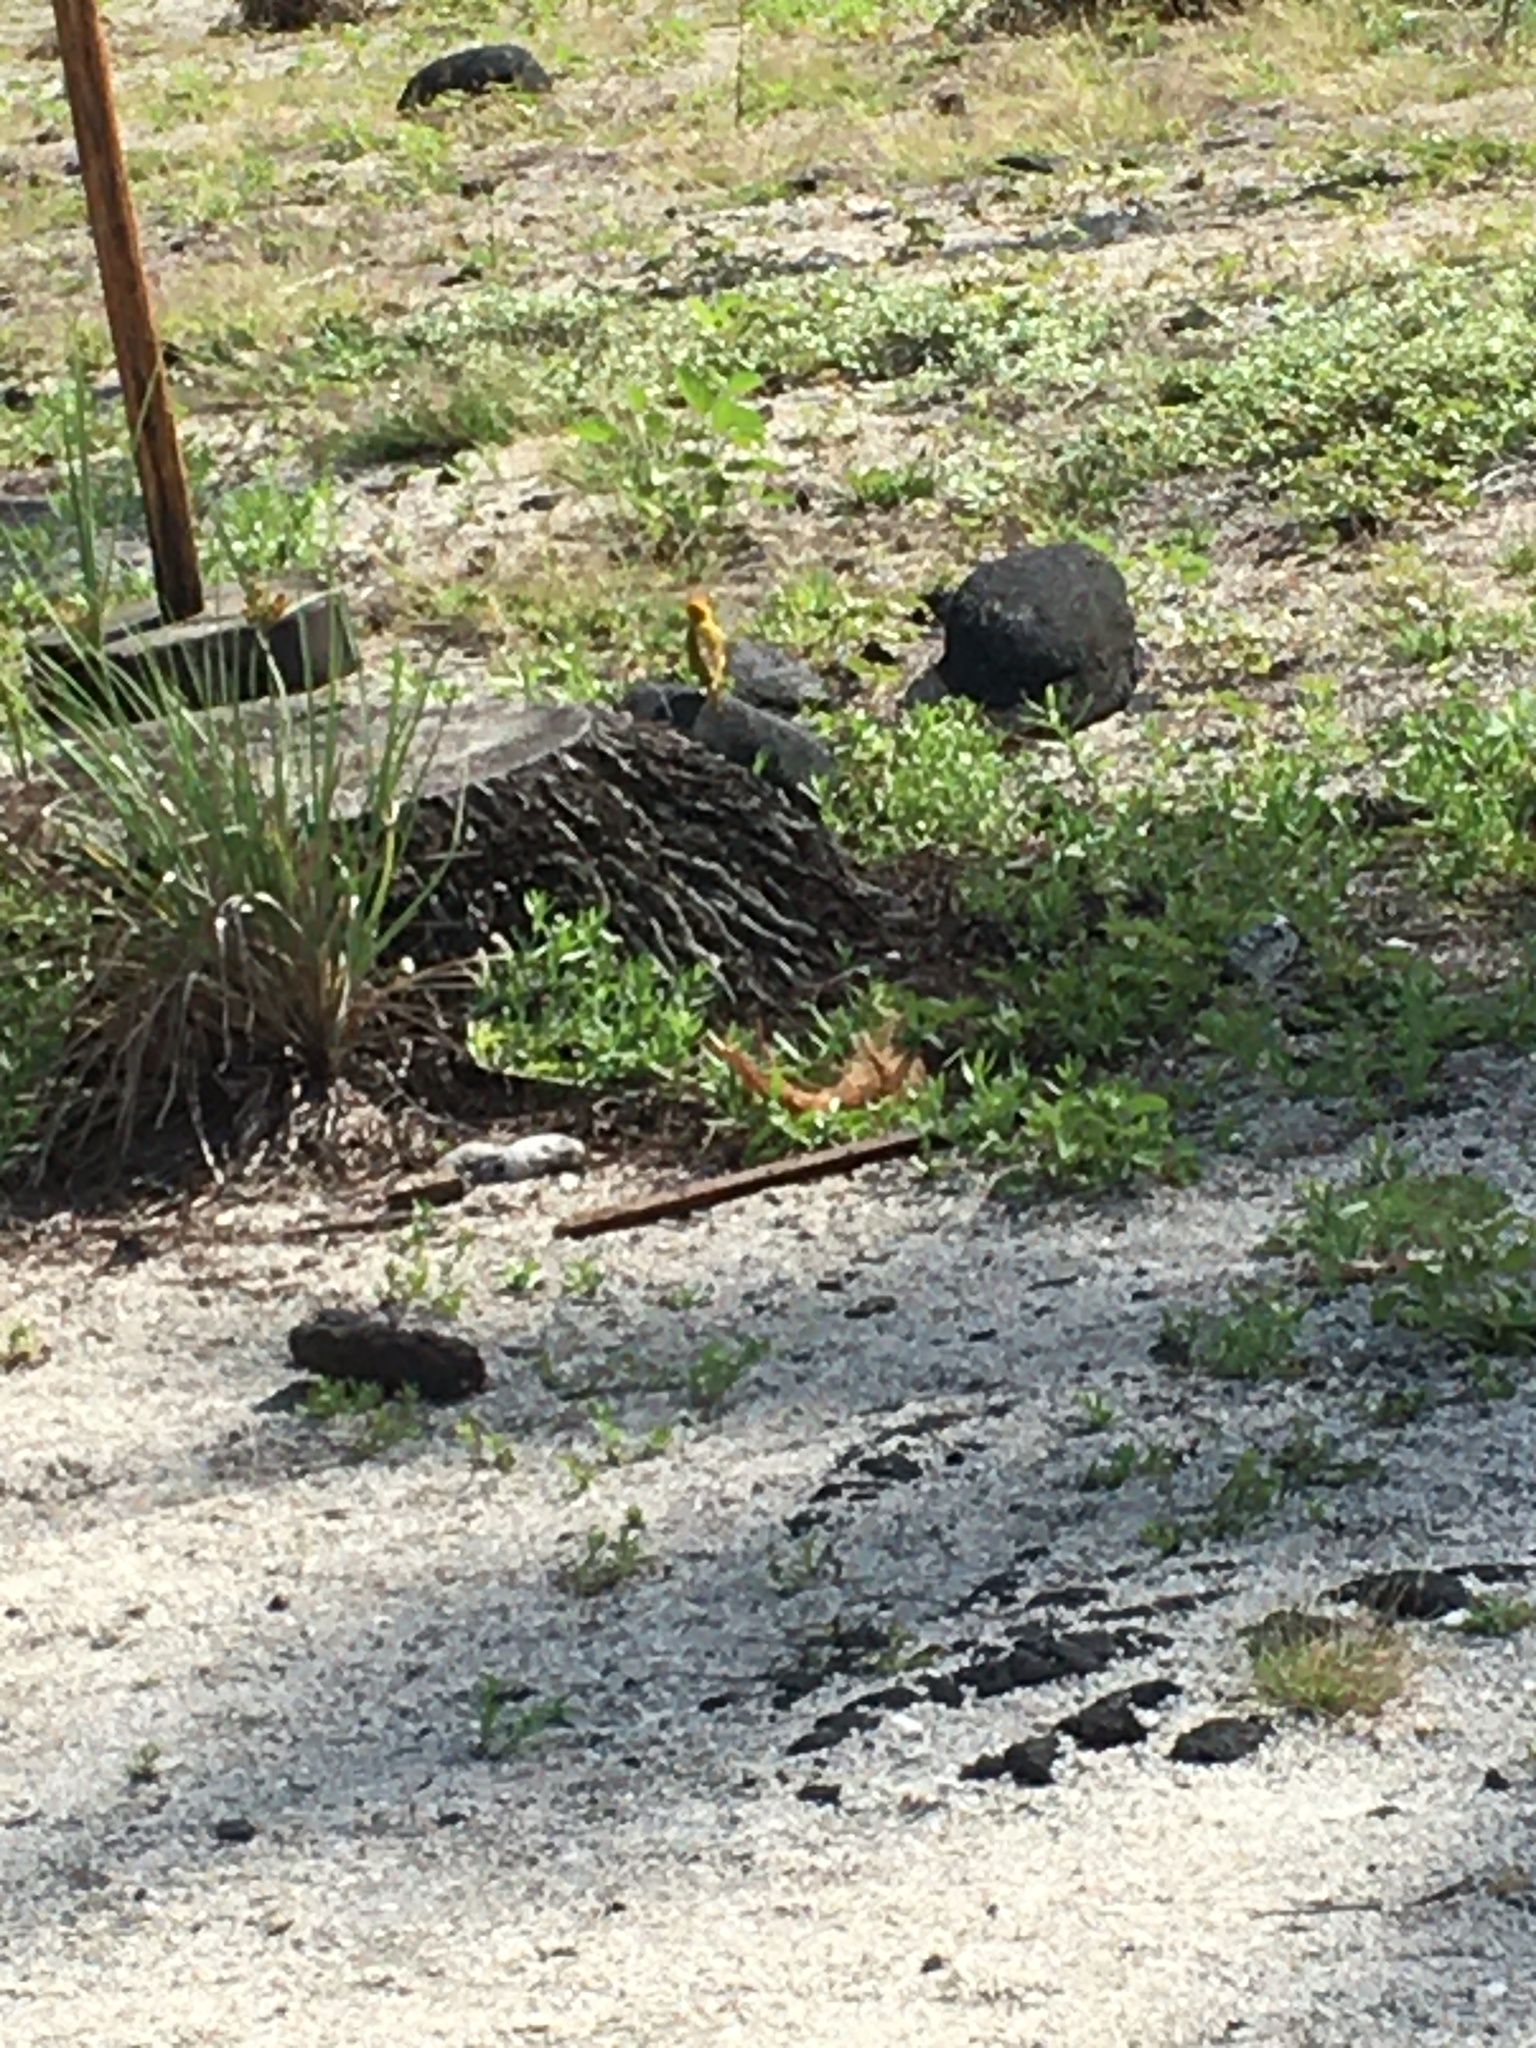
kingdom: Animalia
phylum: Chordata
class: Aves
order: Passeriformes
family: Thraupidae
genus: Sicalis
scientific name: Sicalis flaveola
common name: Saffron finch
